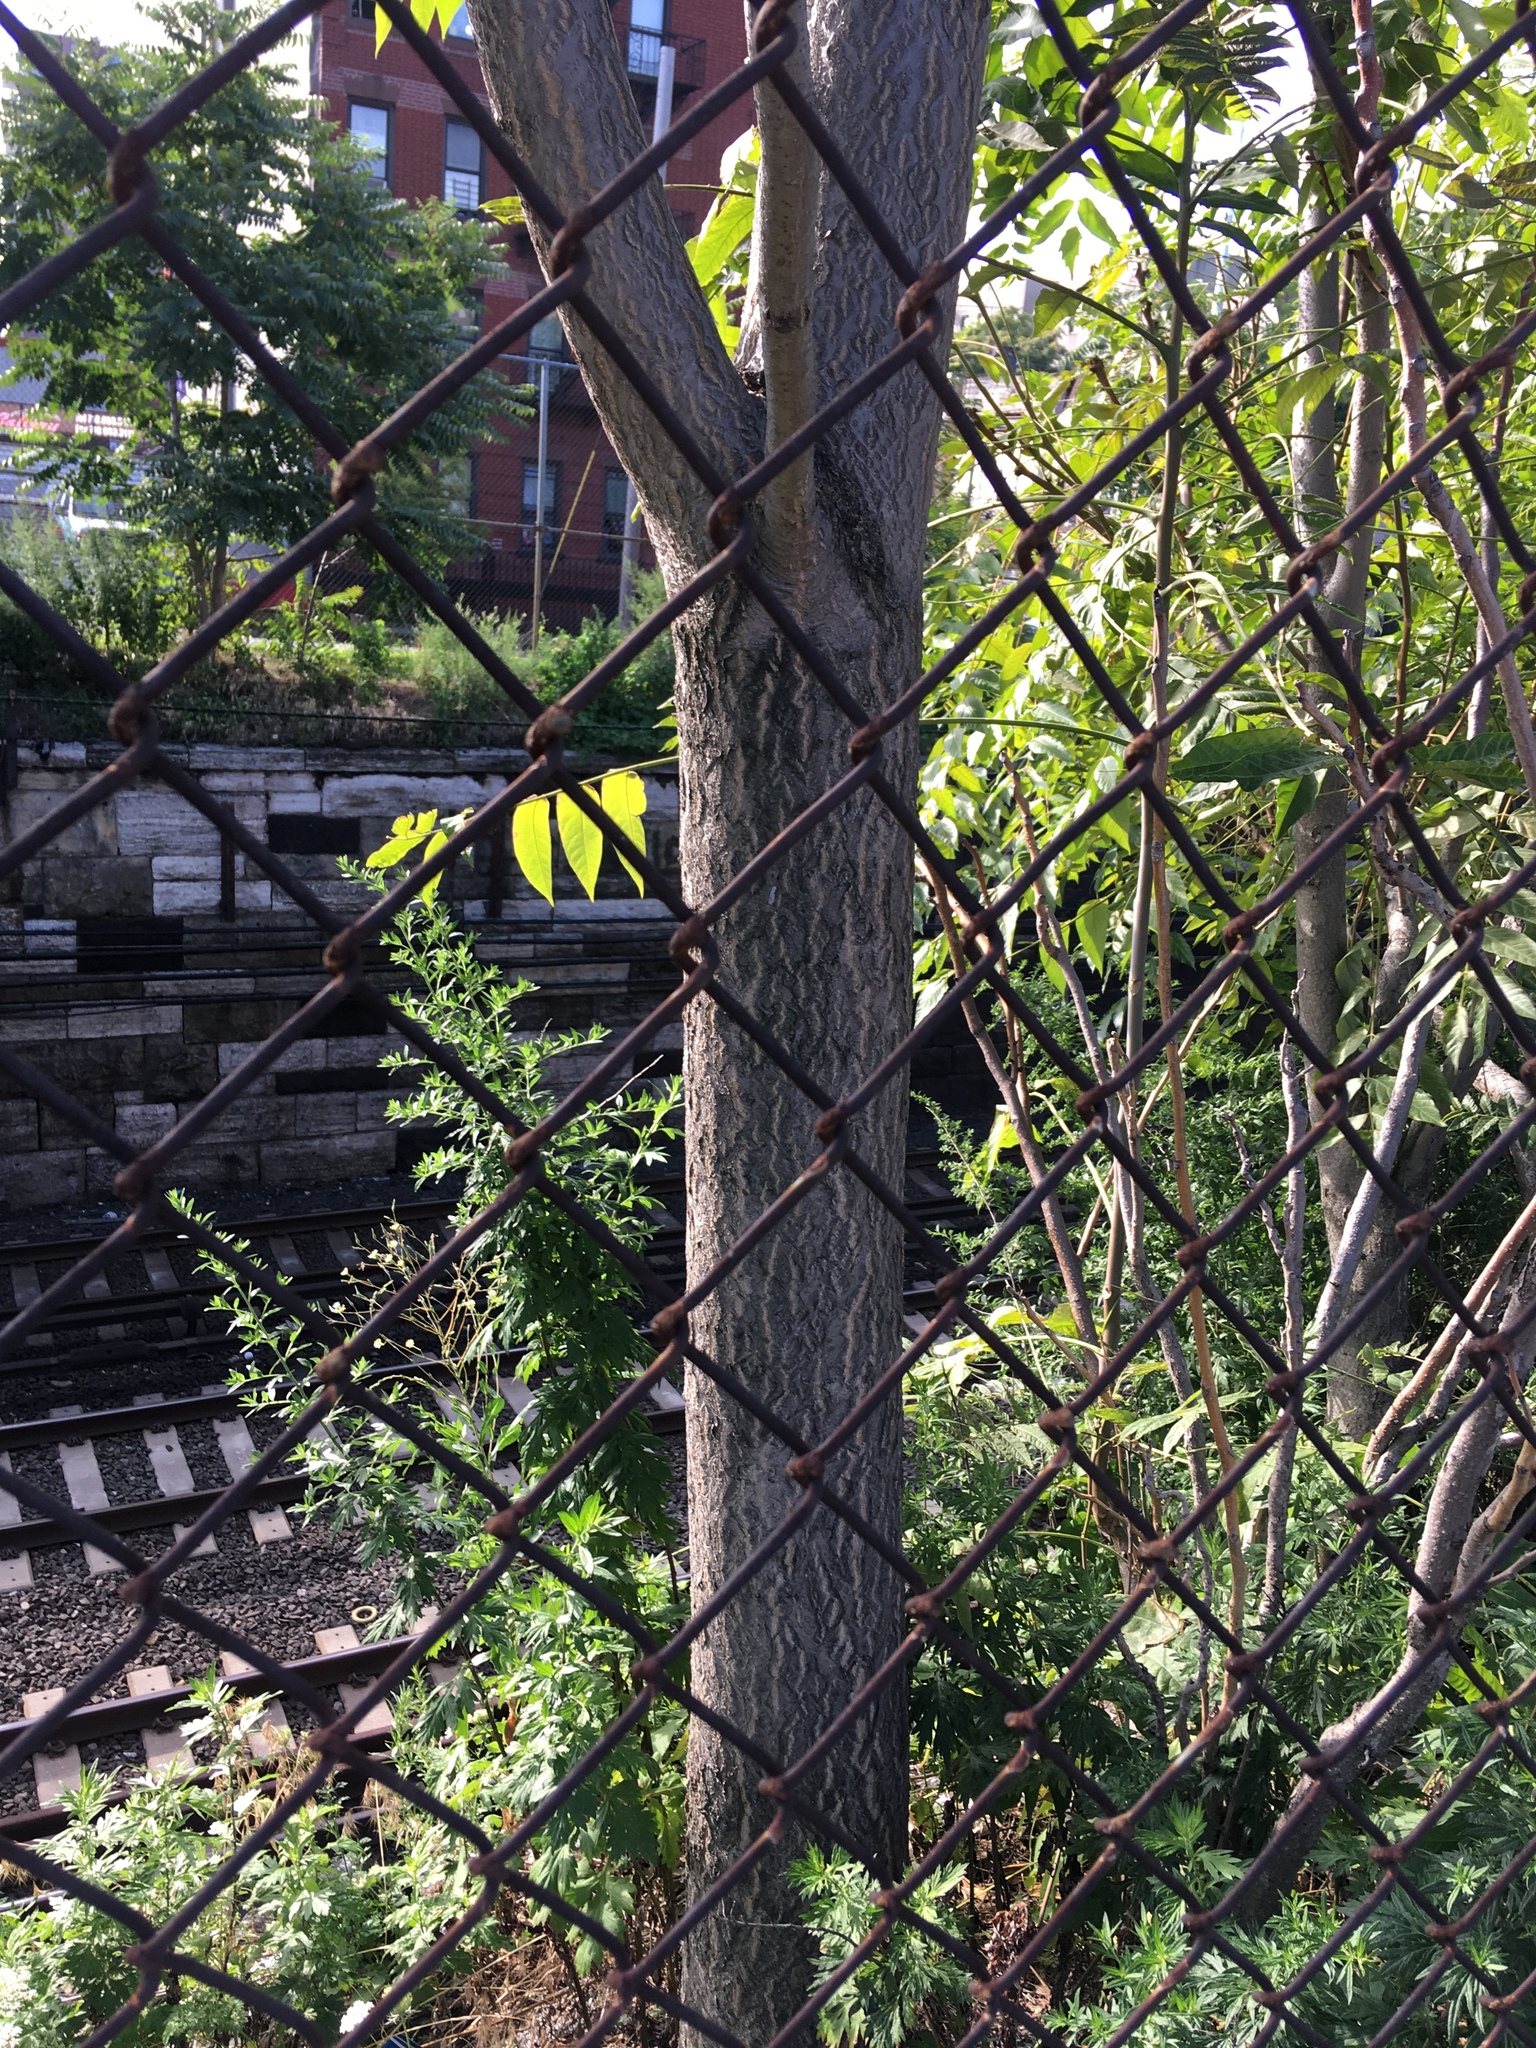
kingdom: Plantae
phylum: Tracheophyta
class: Magnoliopsida
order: Sapindales
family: Simaroubaceae
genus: Ailanthus
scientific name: Ailanthus altissima
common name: Tree-of-heaven
